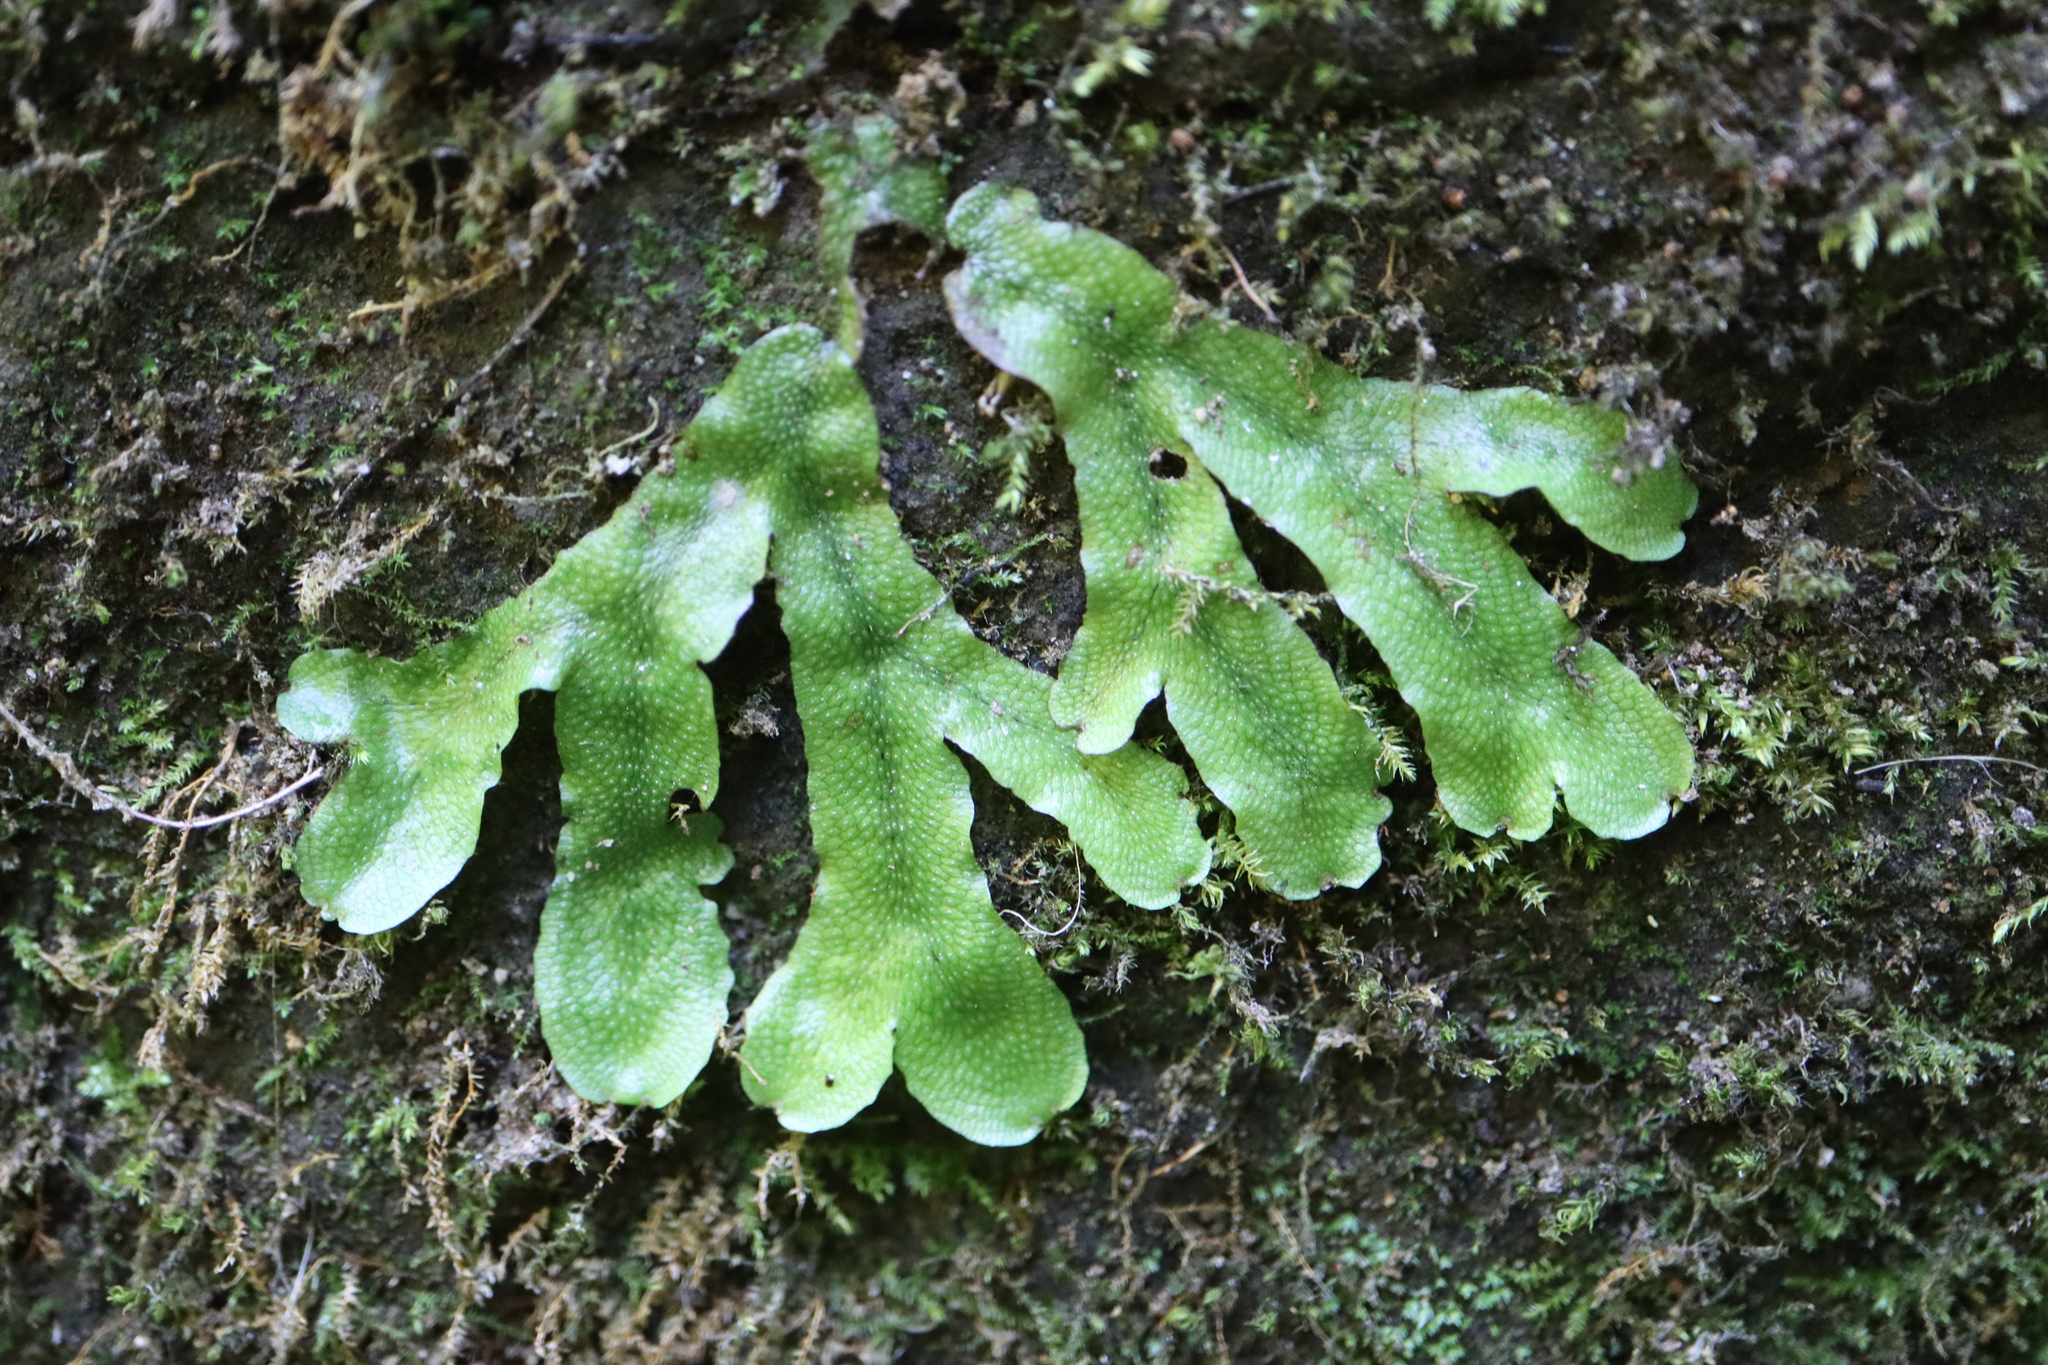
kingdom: Plantae
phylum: Marchantiophyta
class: Marchantiopsida
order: Marchantiales
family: Conocephalaceae
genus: Conocephalum
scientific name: Conocephalum conicum
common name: Great scented liverwort
